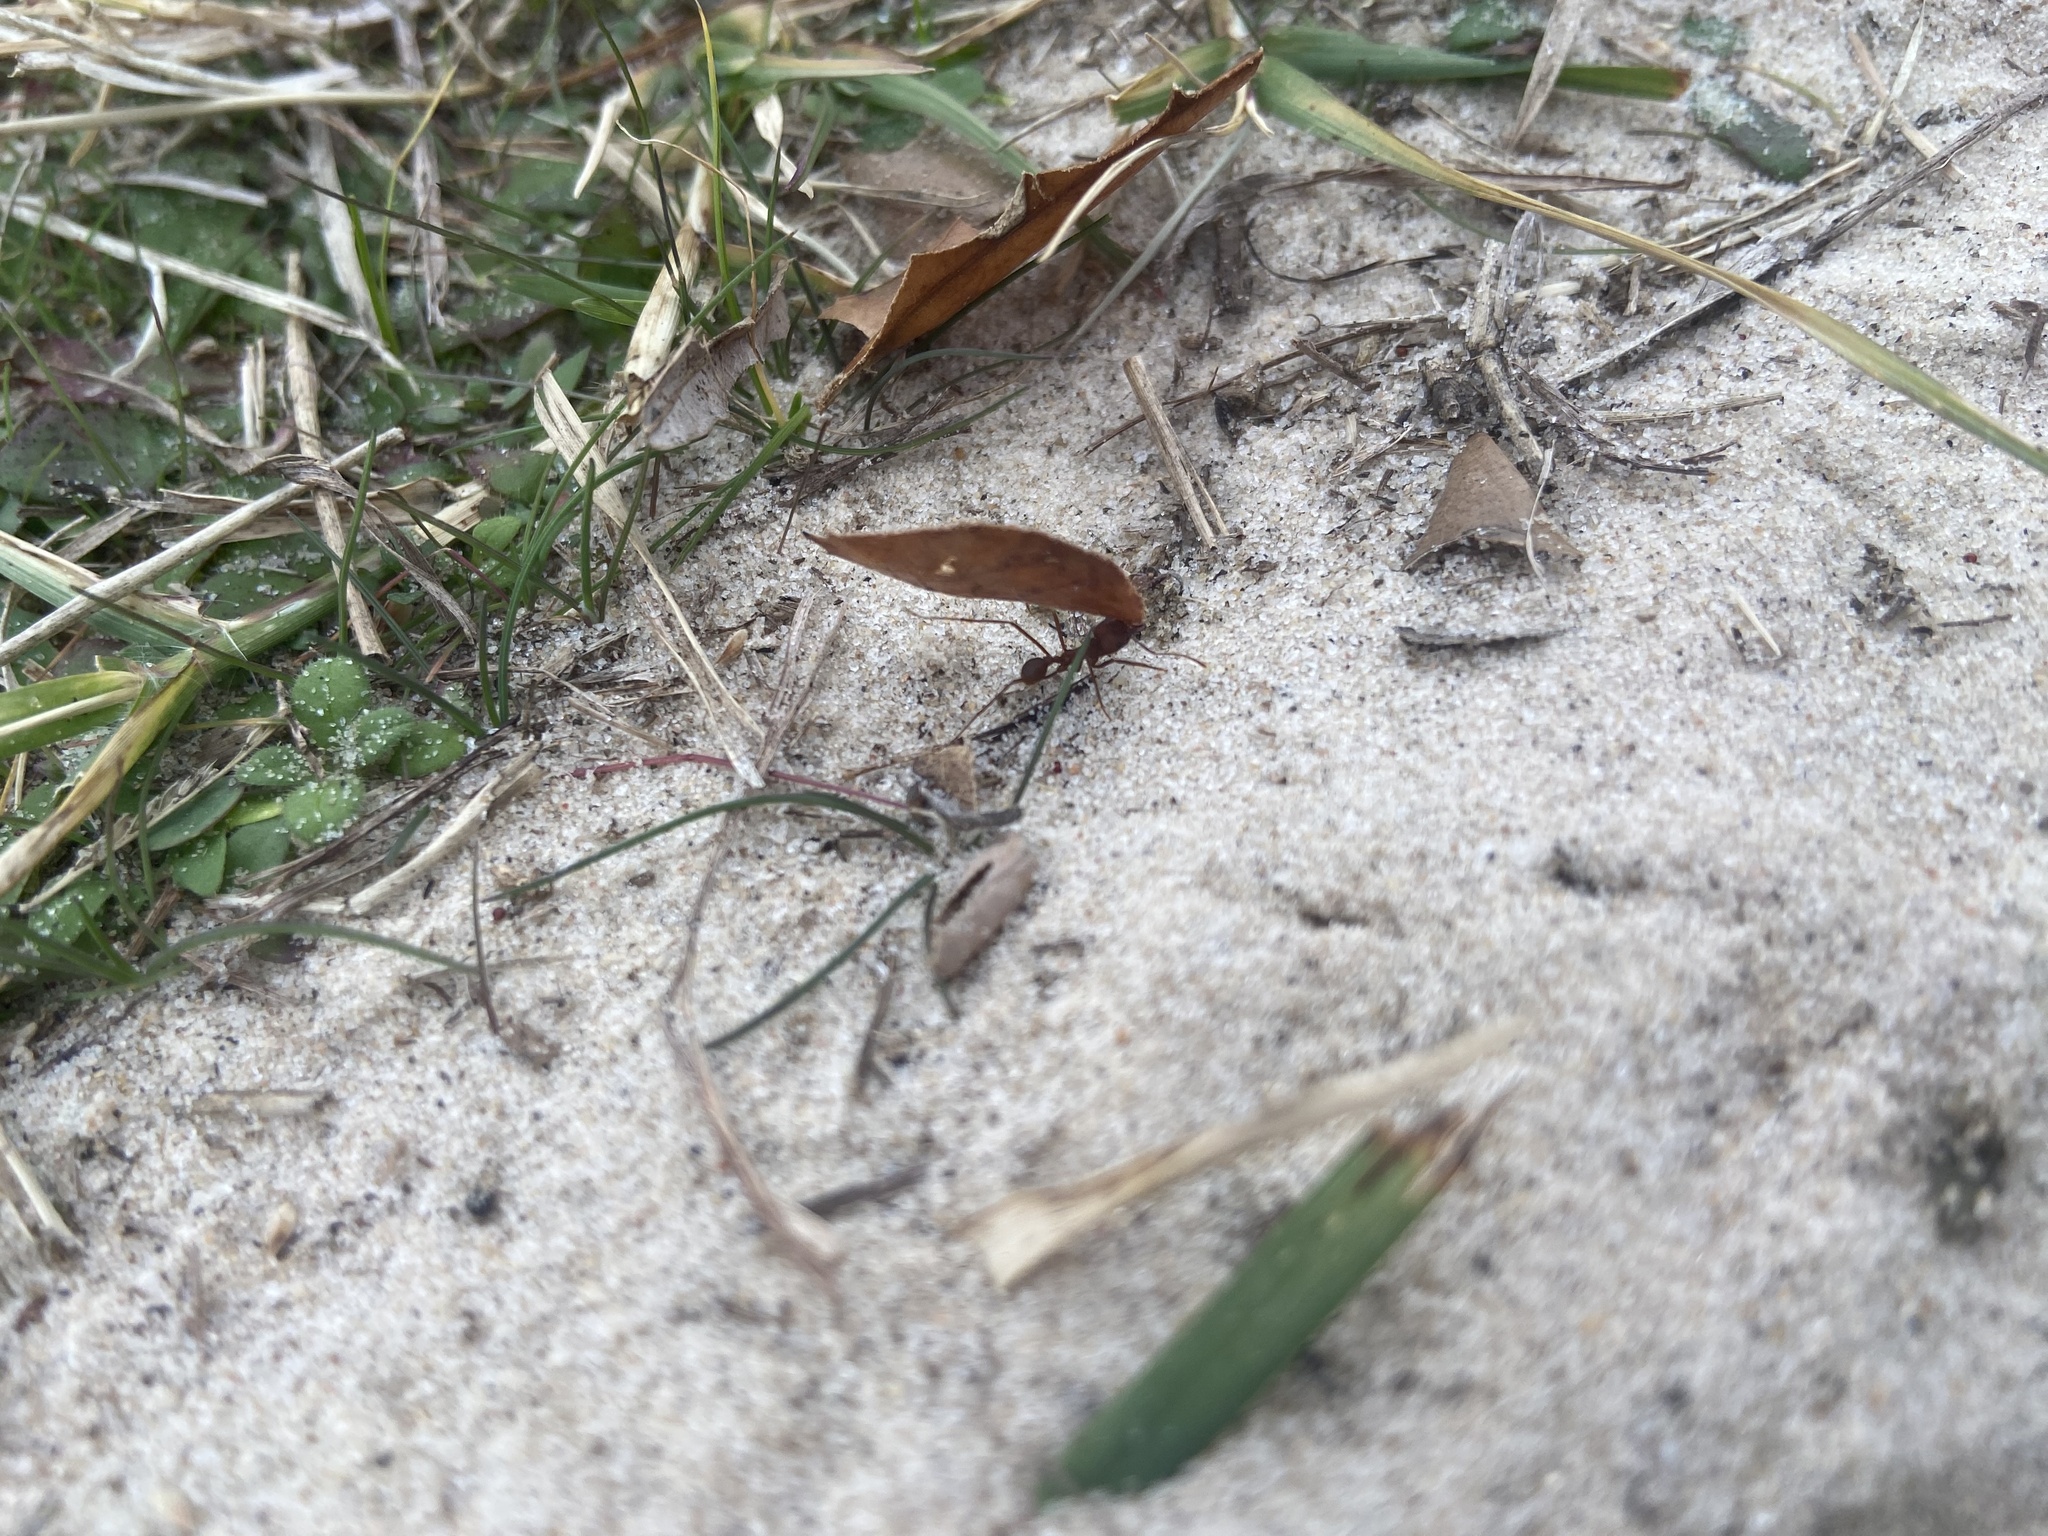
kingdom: Animalia
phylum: Arthropoda
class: Insecta
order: Hymenoptera
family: Formicidae
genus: Atta
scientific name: Atta texana
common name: Texas leafcutting ant
